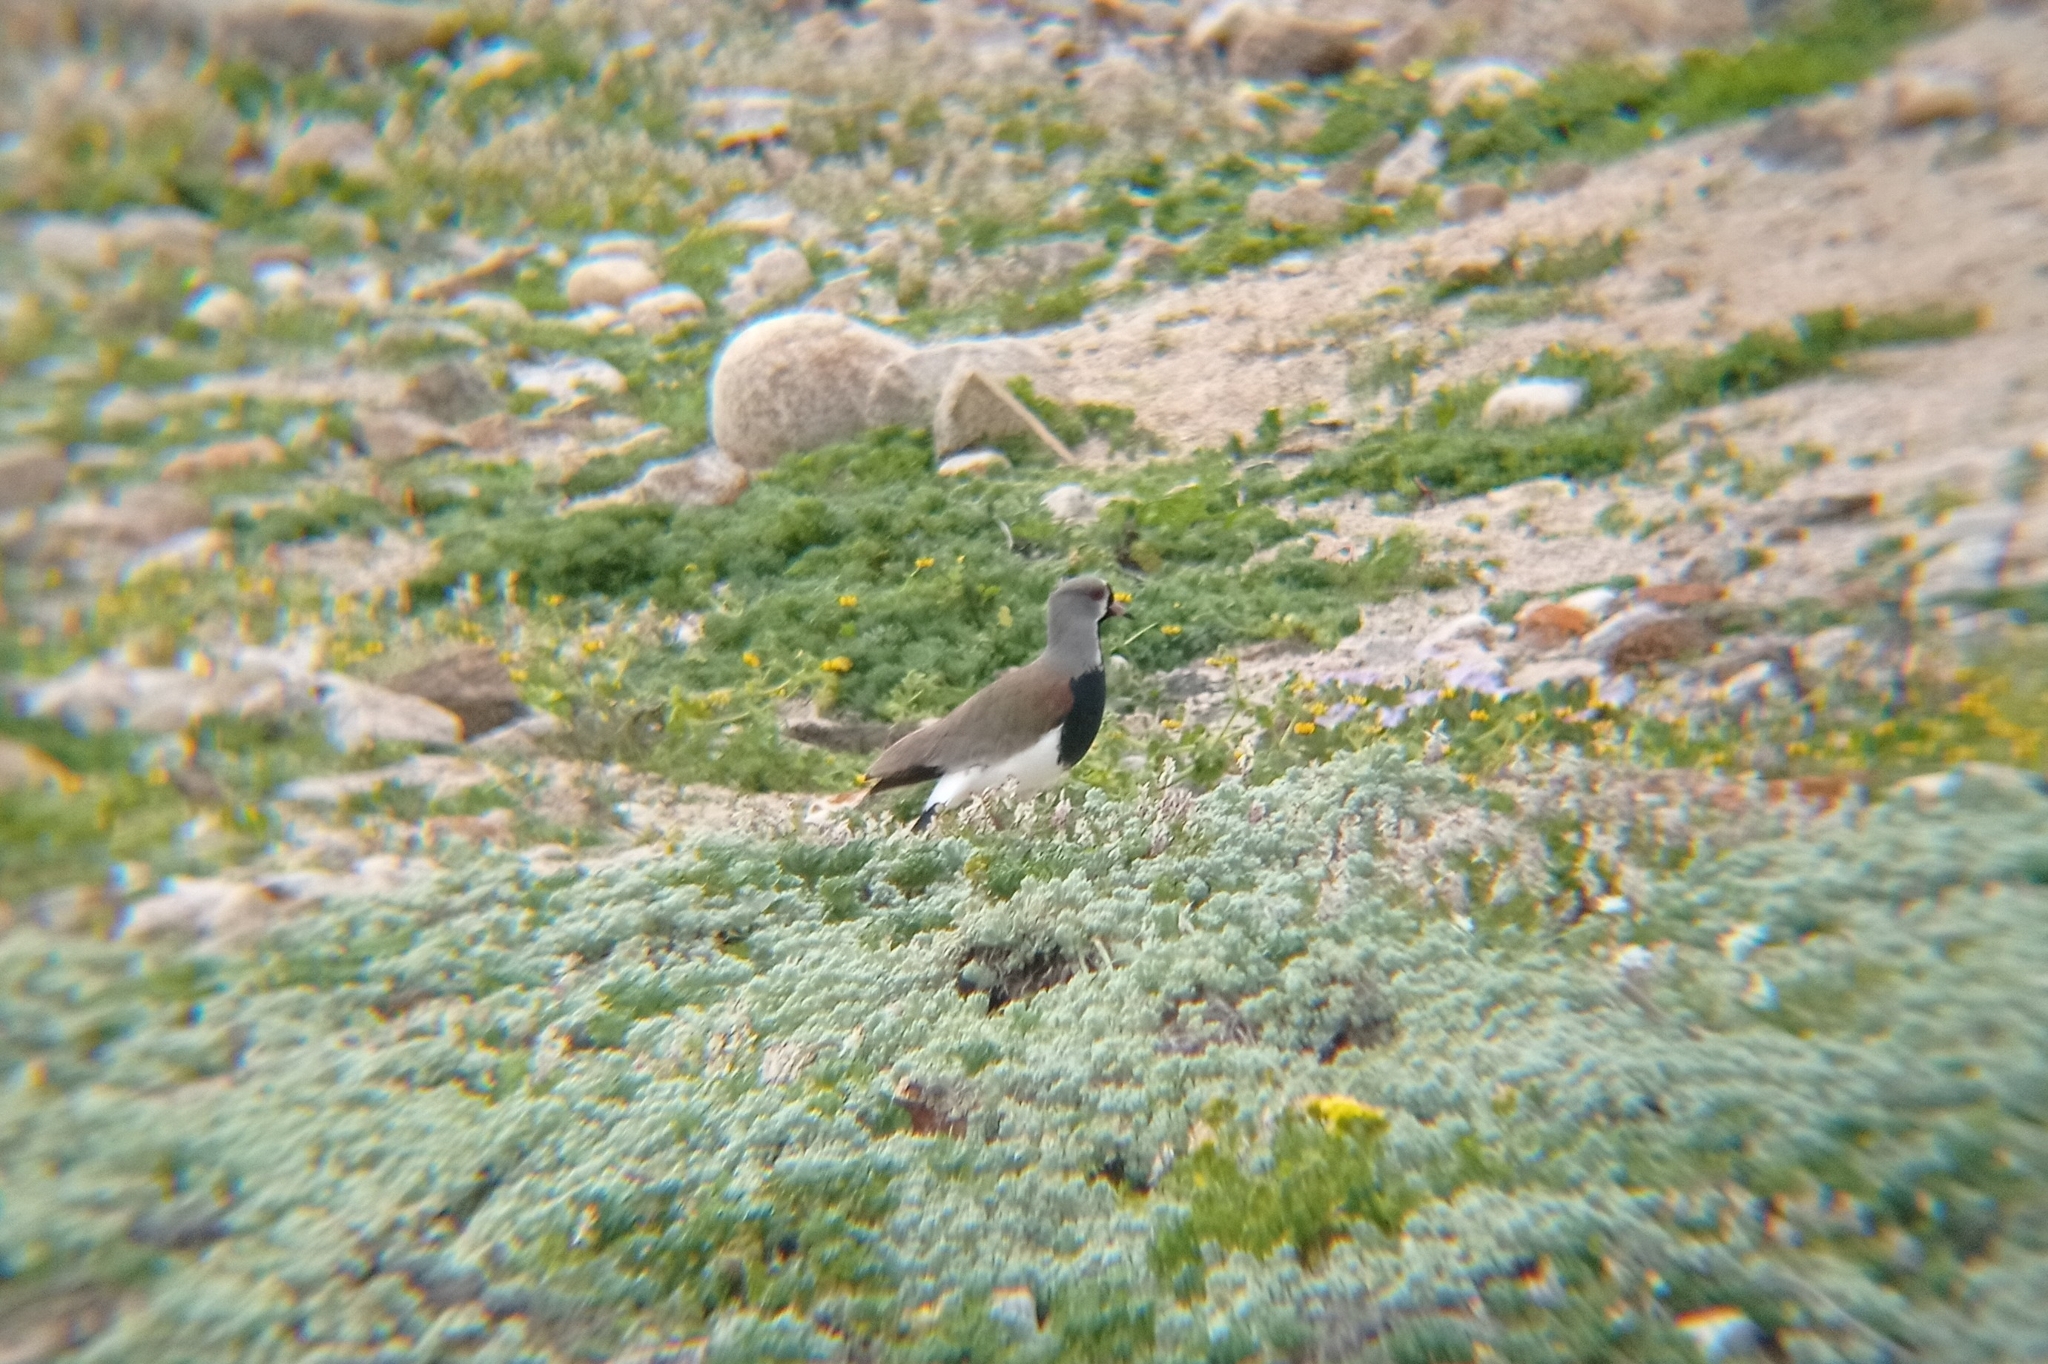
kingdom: Animalia
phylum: Chordata
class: Aves
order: Charadriiformes
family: Charadriidae
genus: Vanellus
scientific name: Vanellus chilensis
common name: Southern lapwing
